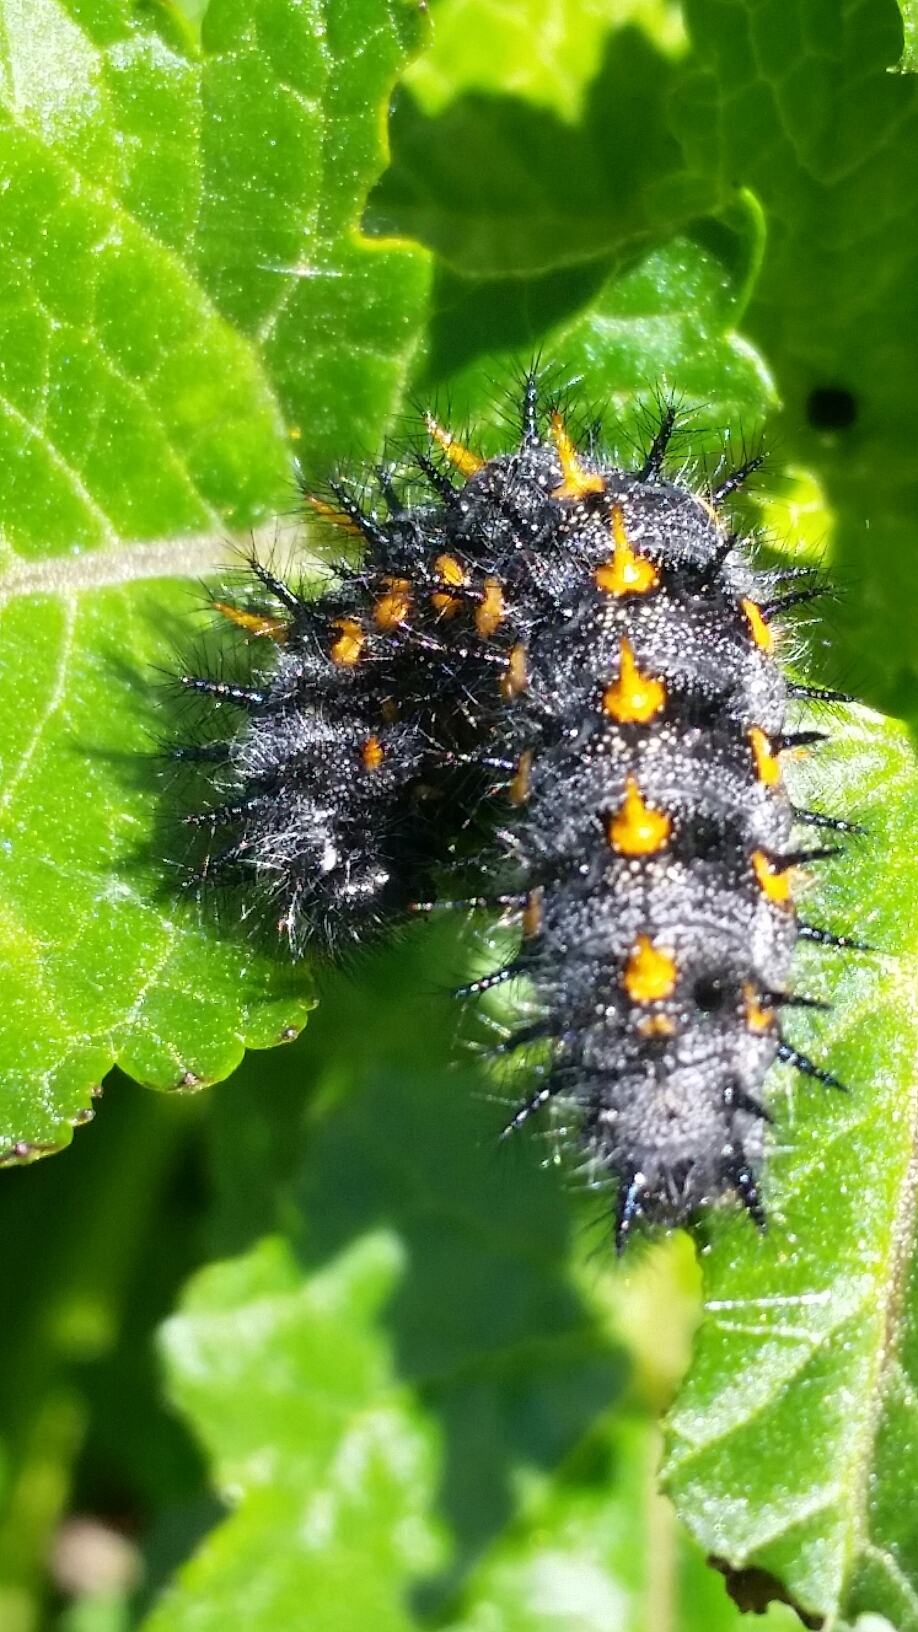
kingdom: Animalia
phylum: Arthropoda
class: Insecta
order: Lepidoptera
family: Nymphalidae
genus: Occidryas
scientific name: Occidryas chalcedona
